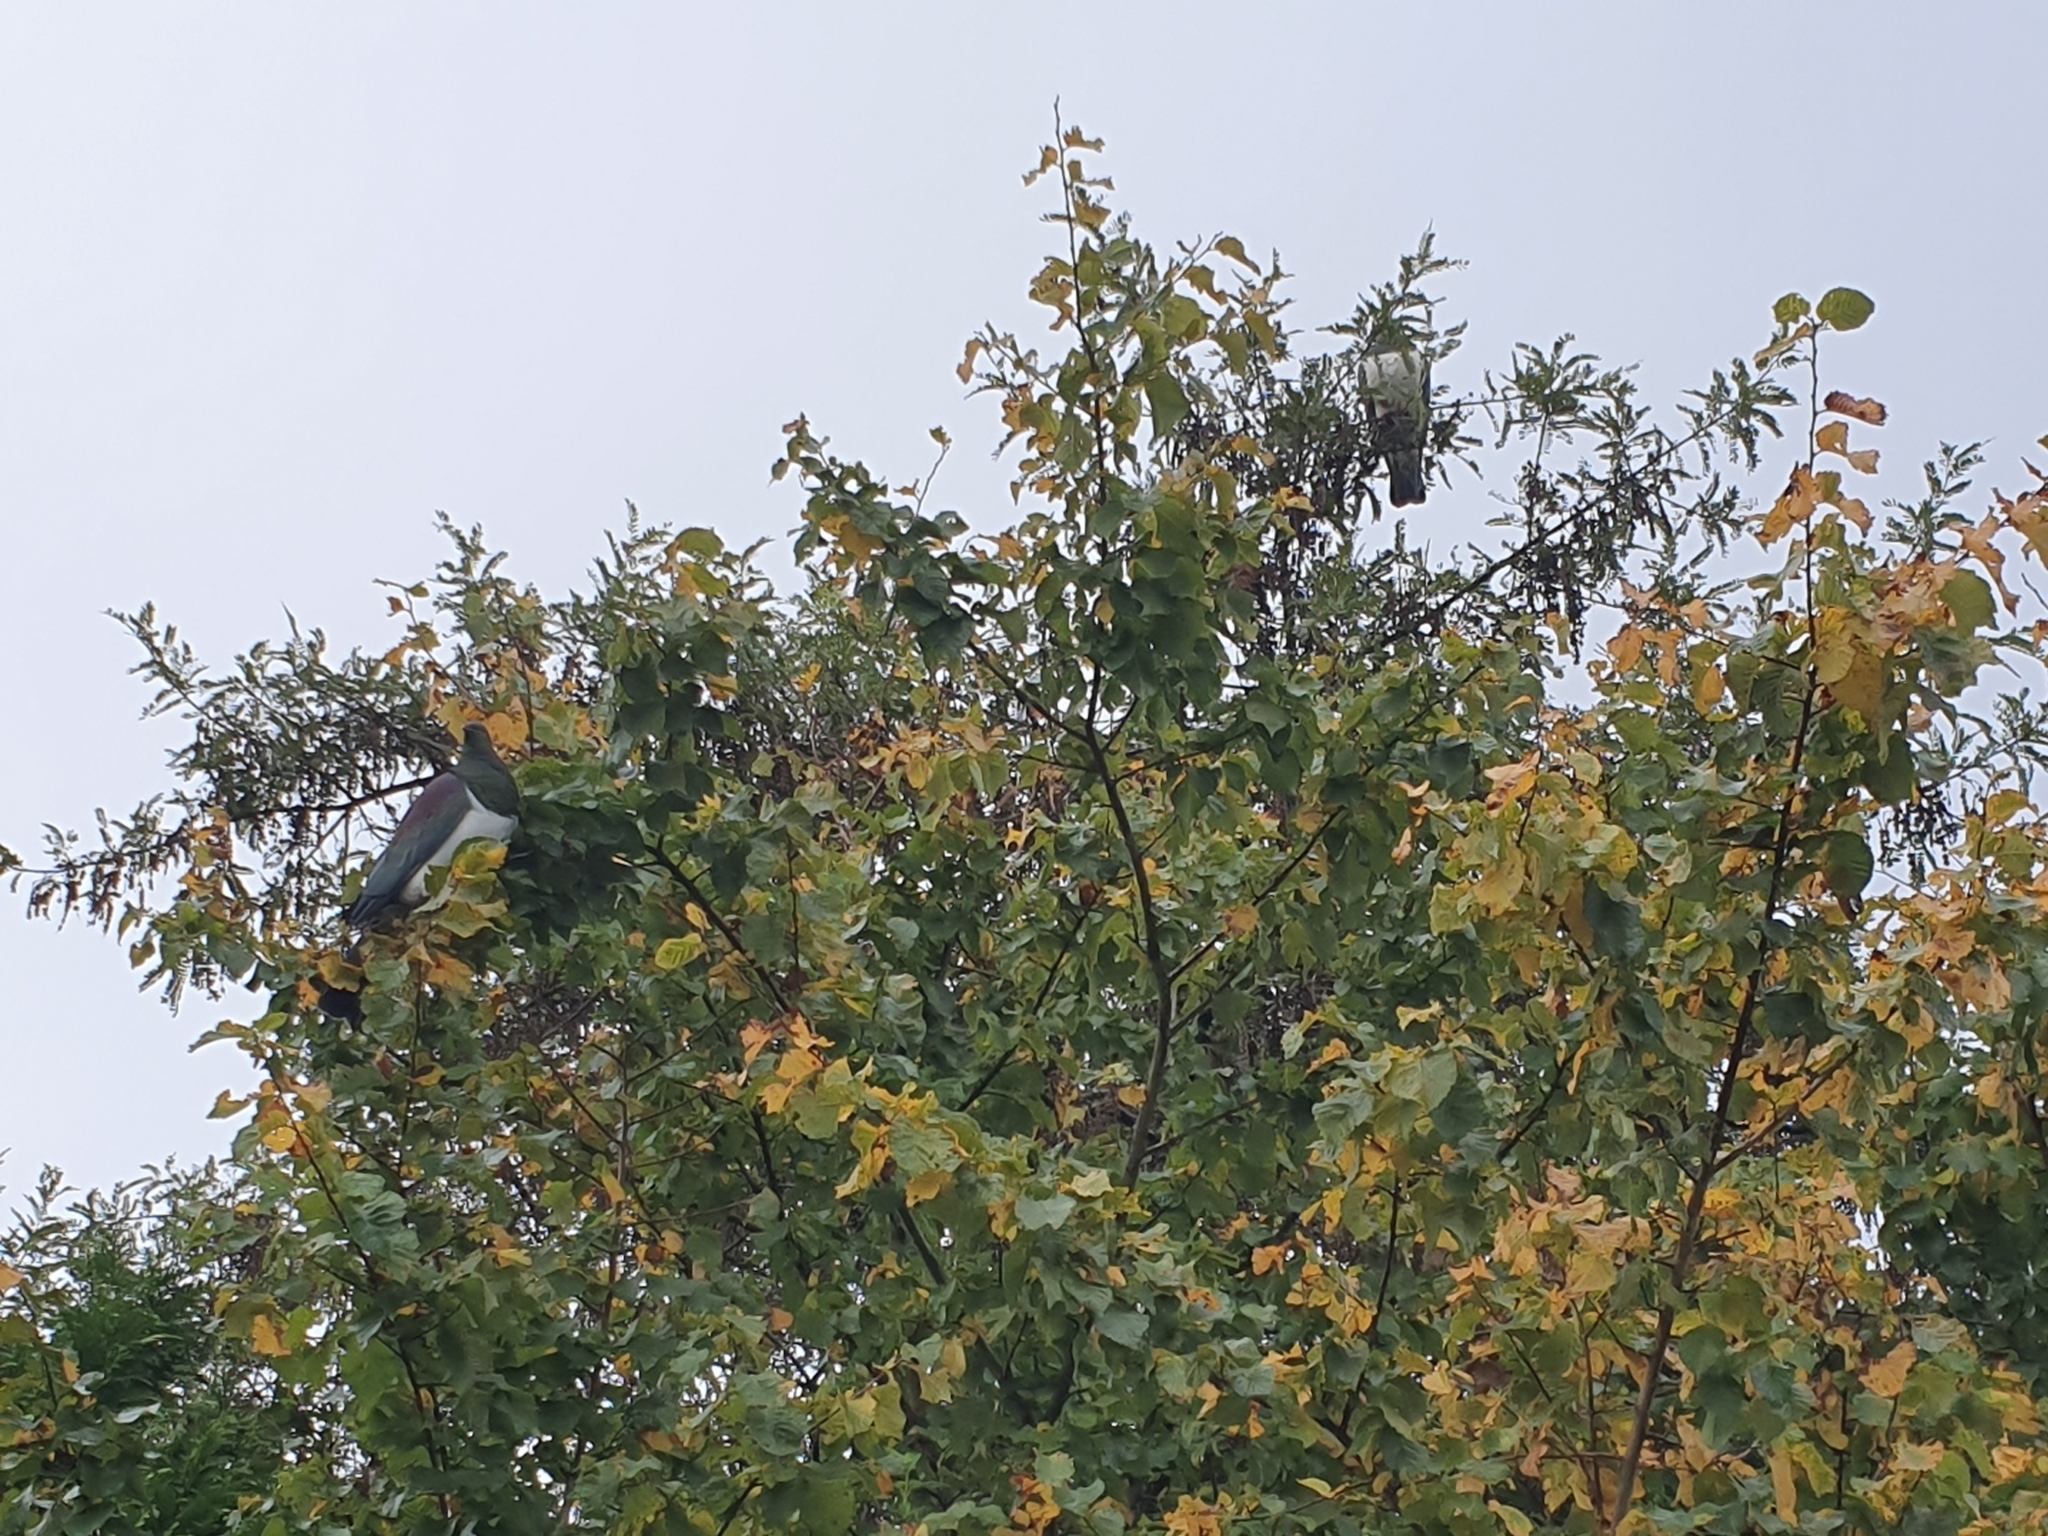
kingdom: Animalia
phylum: Chordata
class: Aves
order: Columbiformes
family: Columbidae
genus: Hemiphaga
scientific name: Hemiphaga novaeseelandiae
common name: New zealand pigeon
